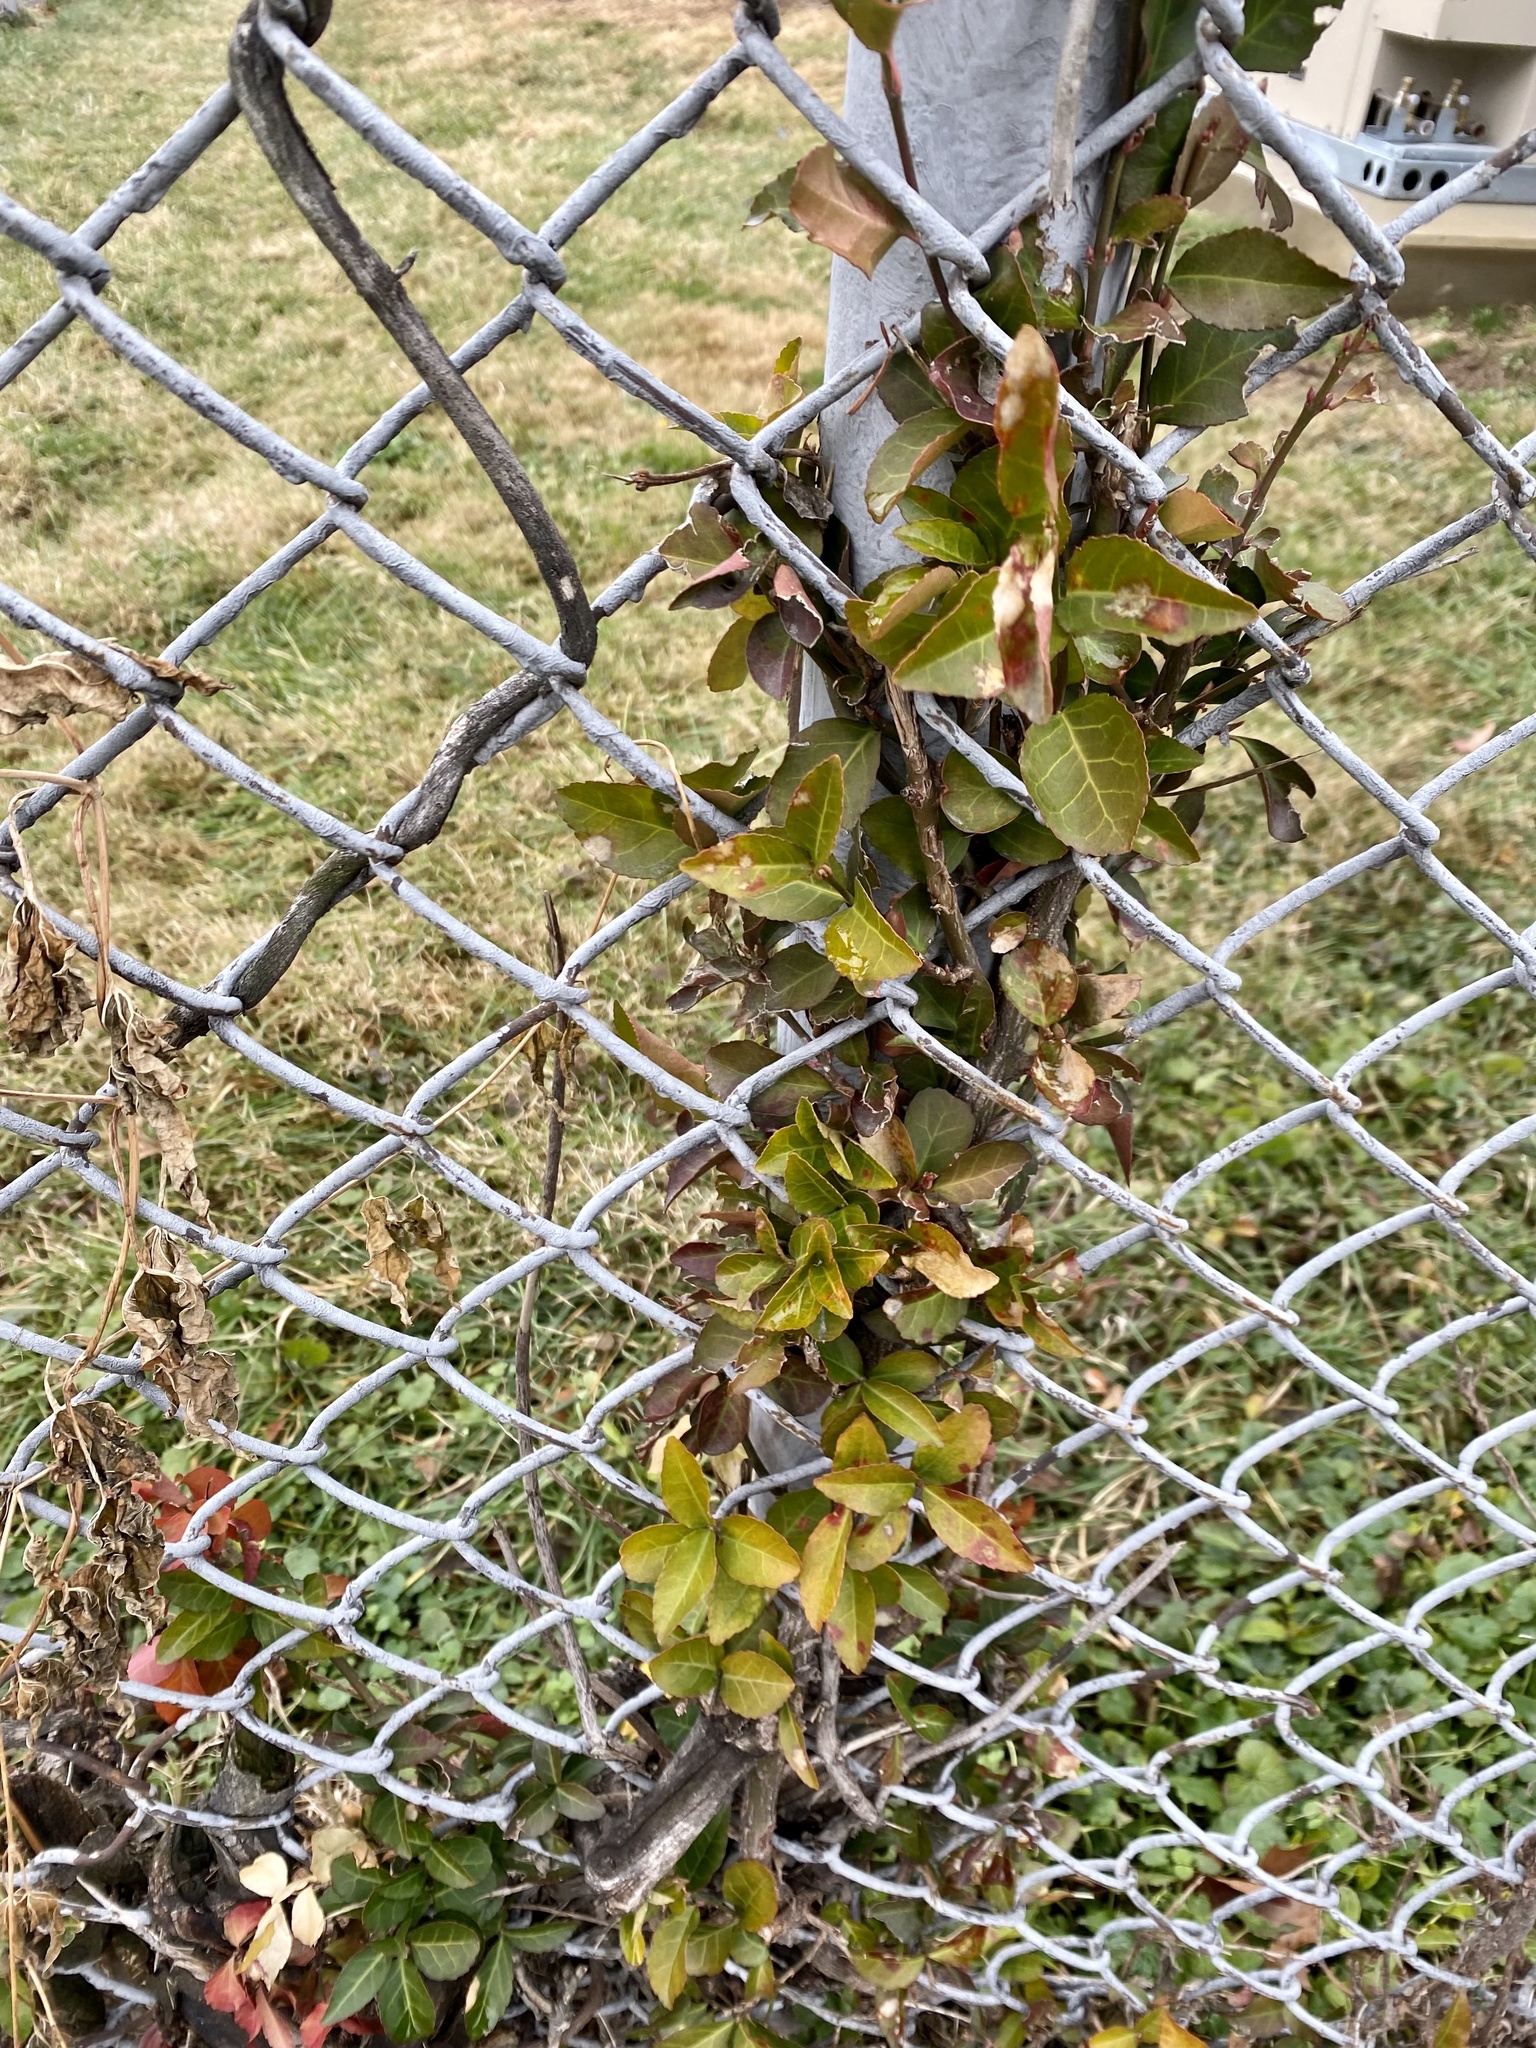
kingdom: Plantae
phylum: Tracheophyta
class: Magnoliopsida
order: Celastrales
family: Celastraceae
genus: Euonymus
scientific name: Euonymus fortunei
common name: Climbing euonymus
